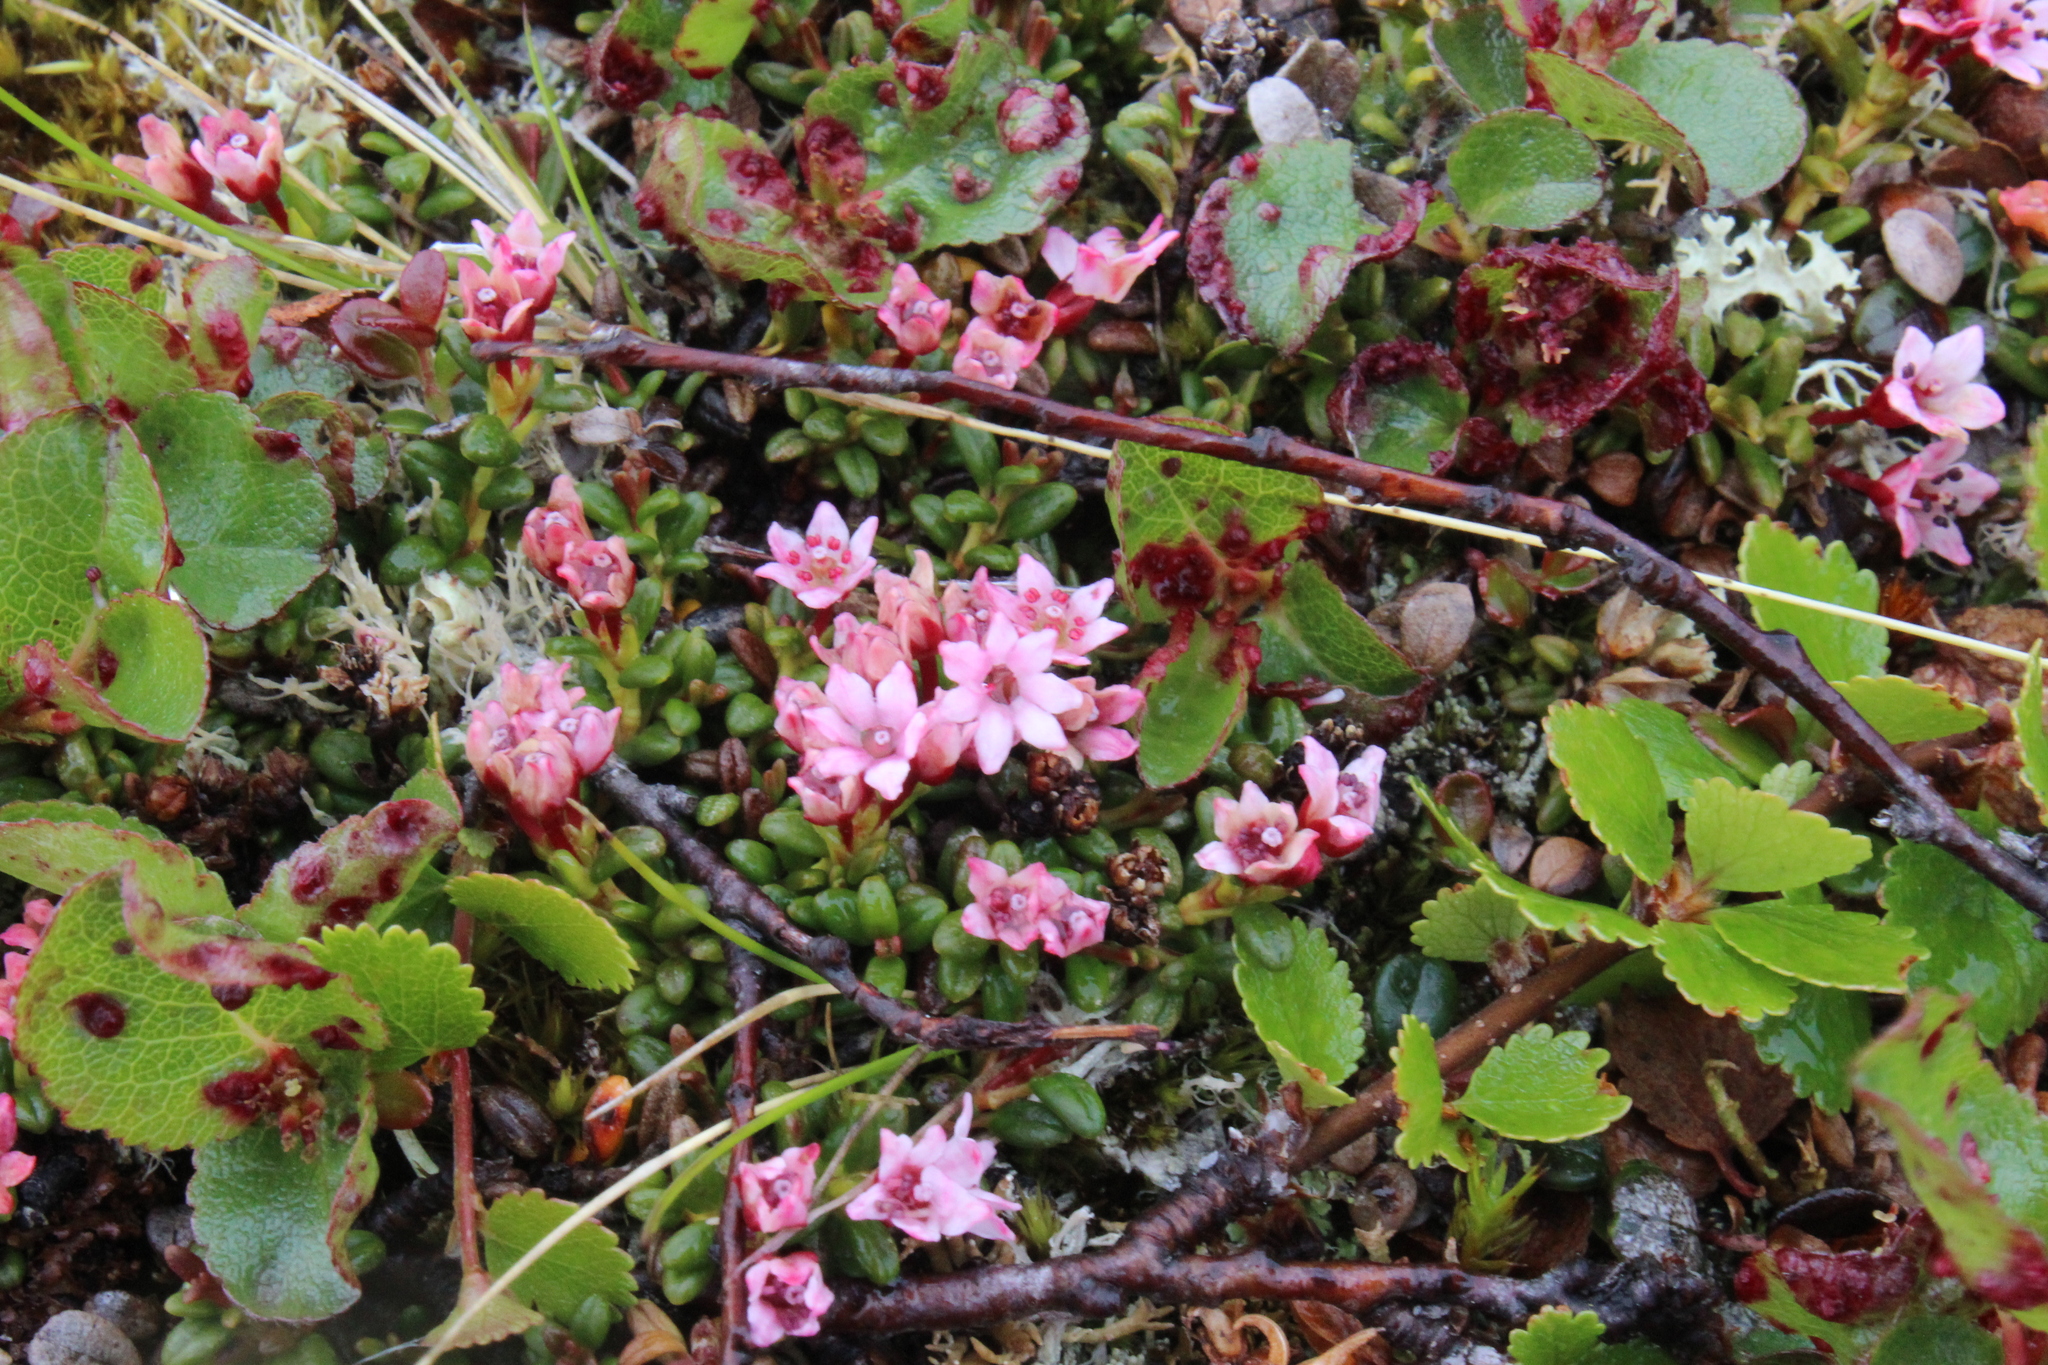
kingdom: Plantae
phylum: Tracheophyta
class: Magnoliopsida
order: Ericales
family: Ericaceae
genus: Kalmia
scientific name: Kalmia procumbens
